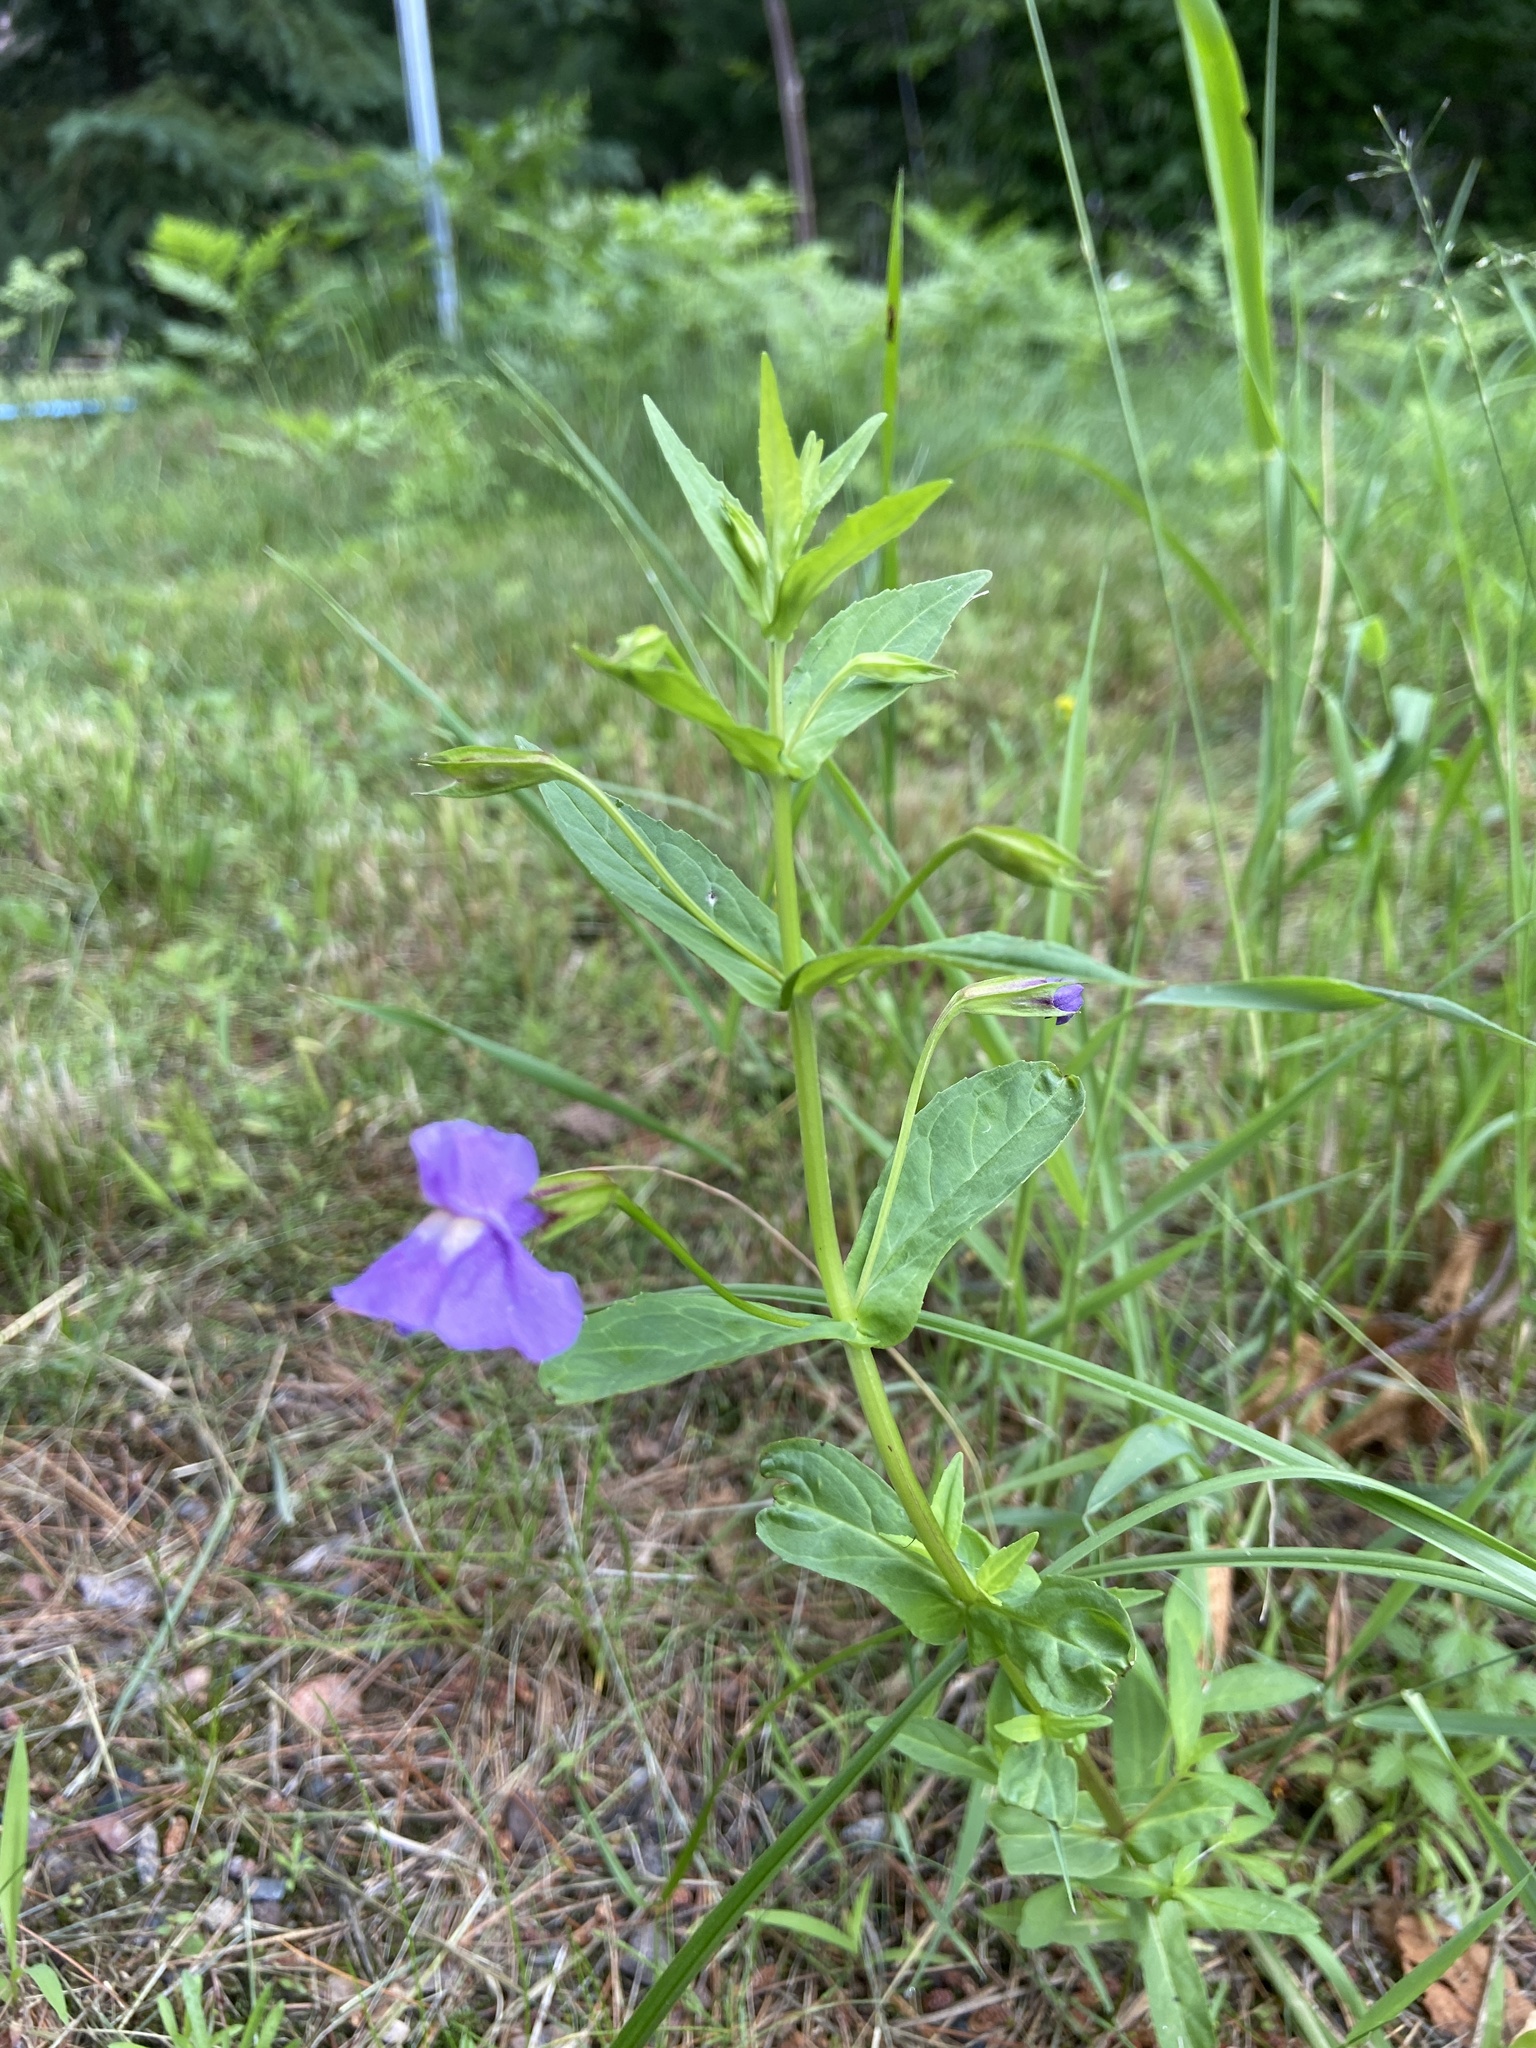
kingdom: Plantae
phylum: Tracheophyta
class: Magnoliopsida
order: Lamiales
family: Phrymaceae
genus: Mimulus
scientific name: Mimulus ringens
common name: Allegheny monkeyflower
